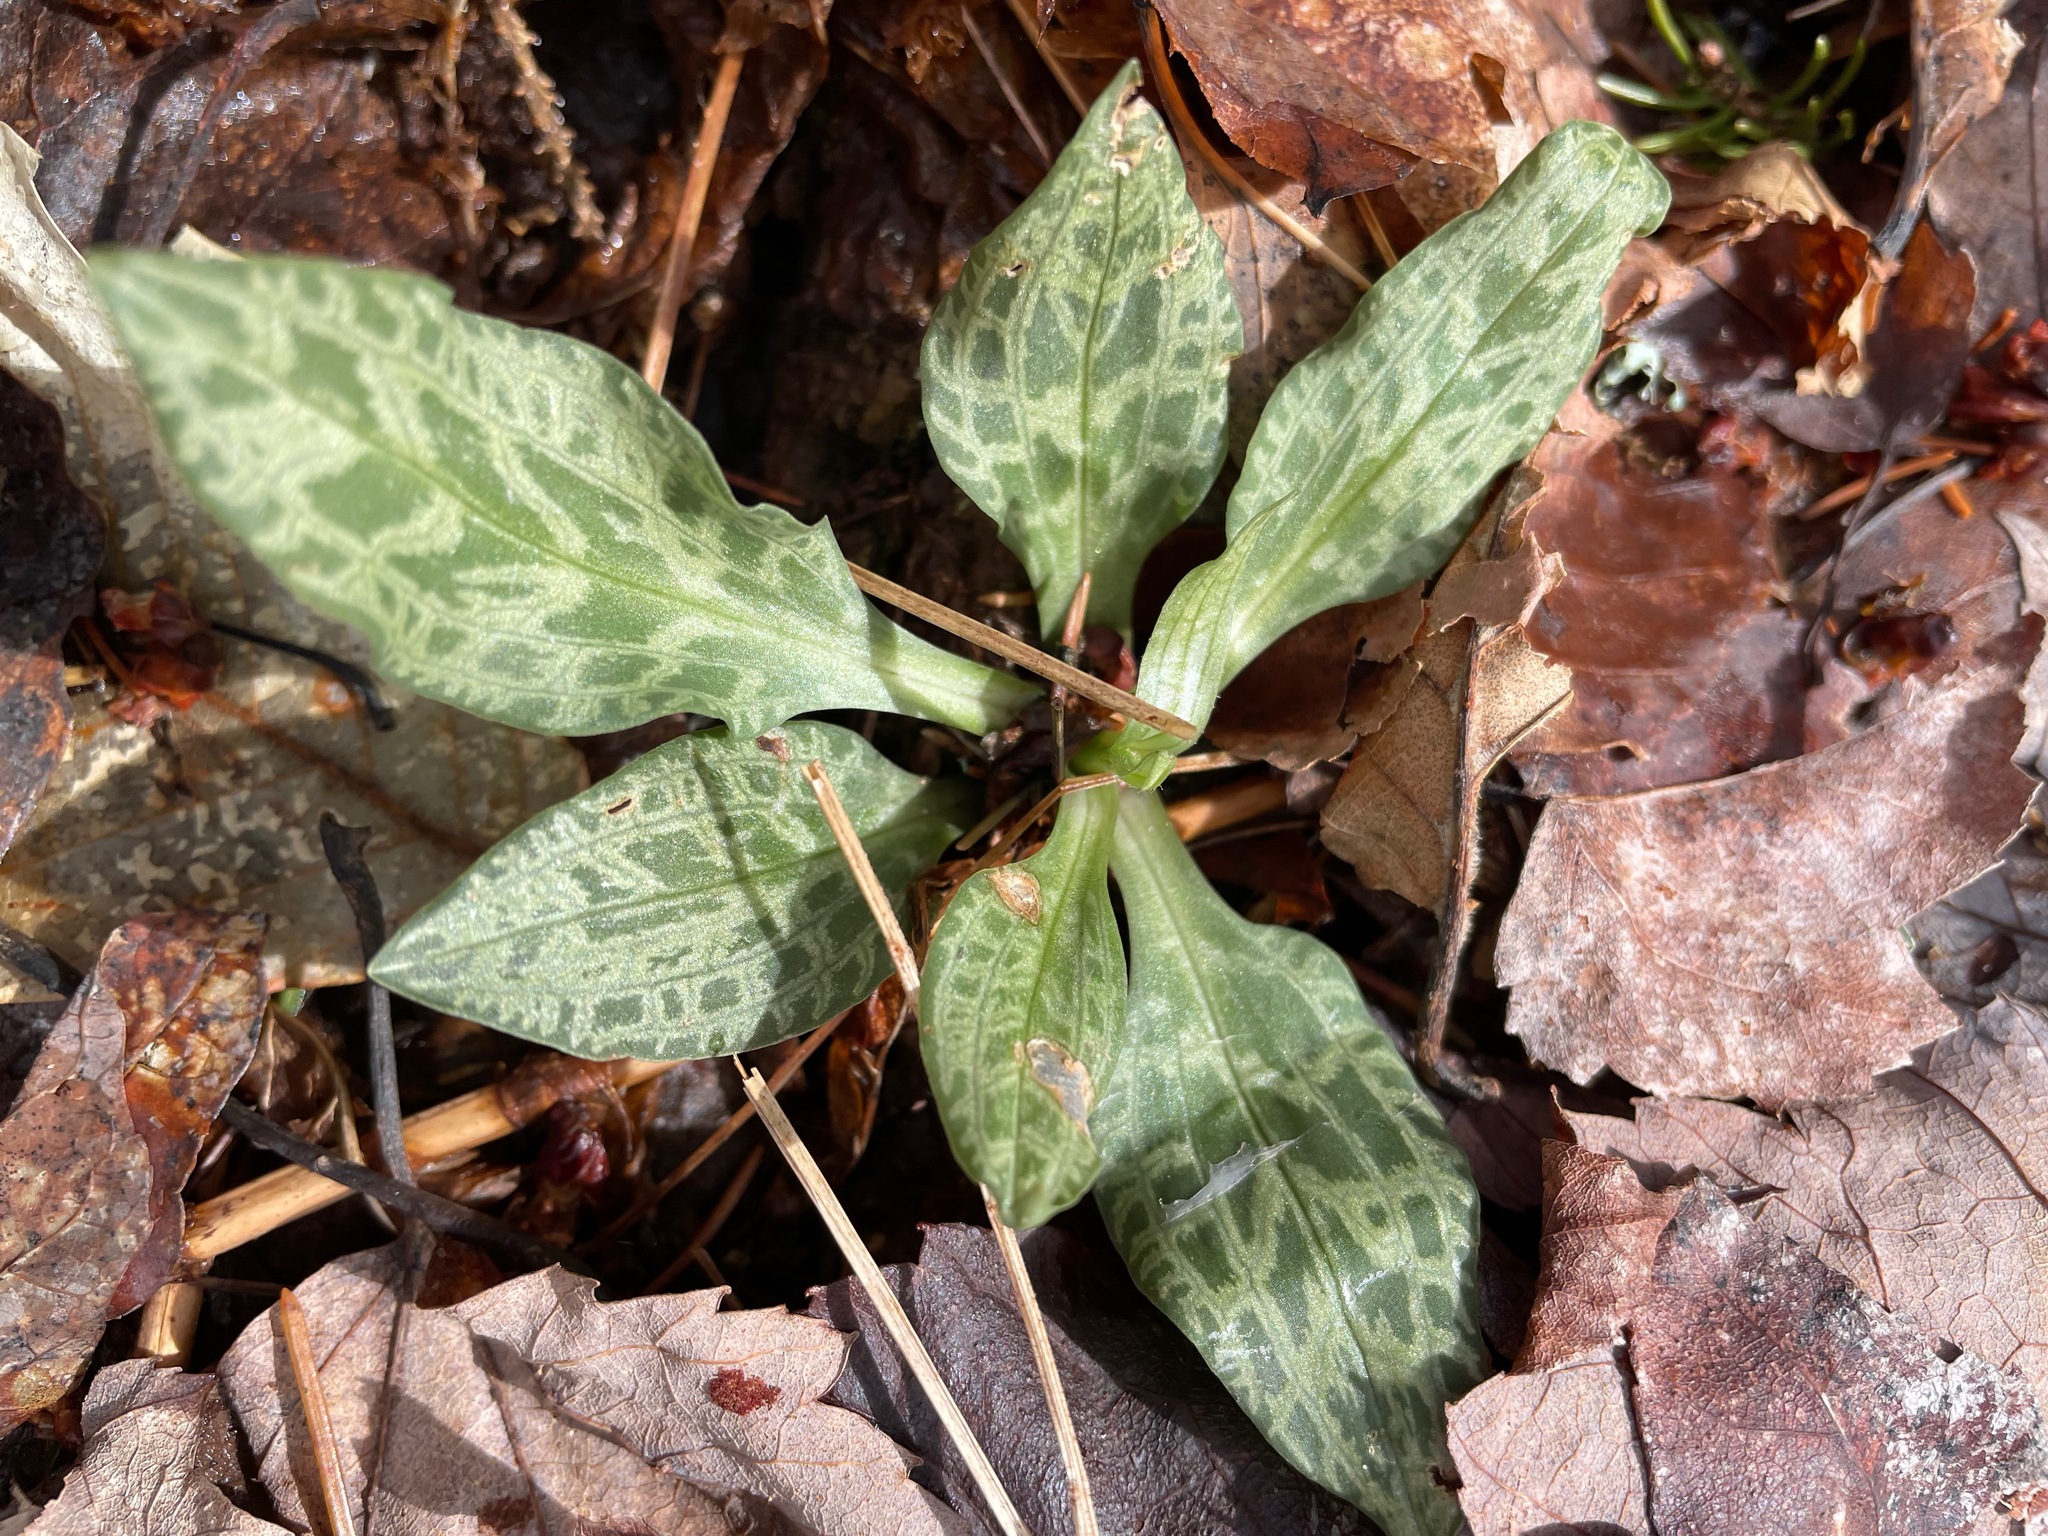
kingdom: Plantae
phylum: Tracheophyta
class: Liliopsida
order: Asparagales
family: Orchidaceae
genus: Goodyera
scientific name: Goodyera tesselata
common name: Checkered rattlesnake-plantain
